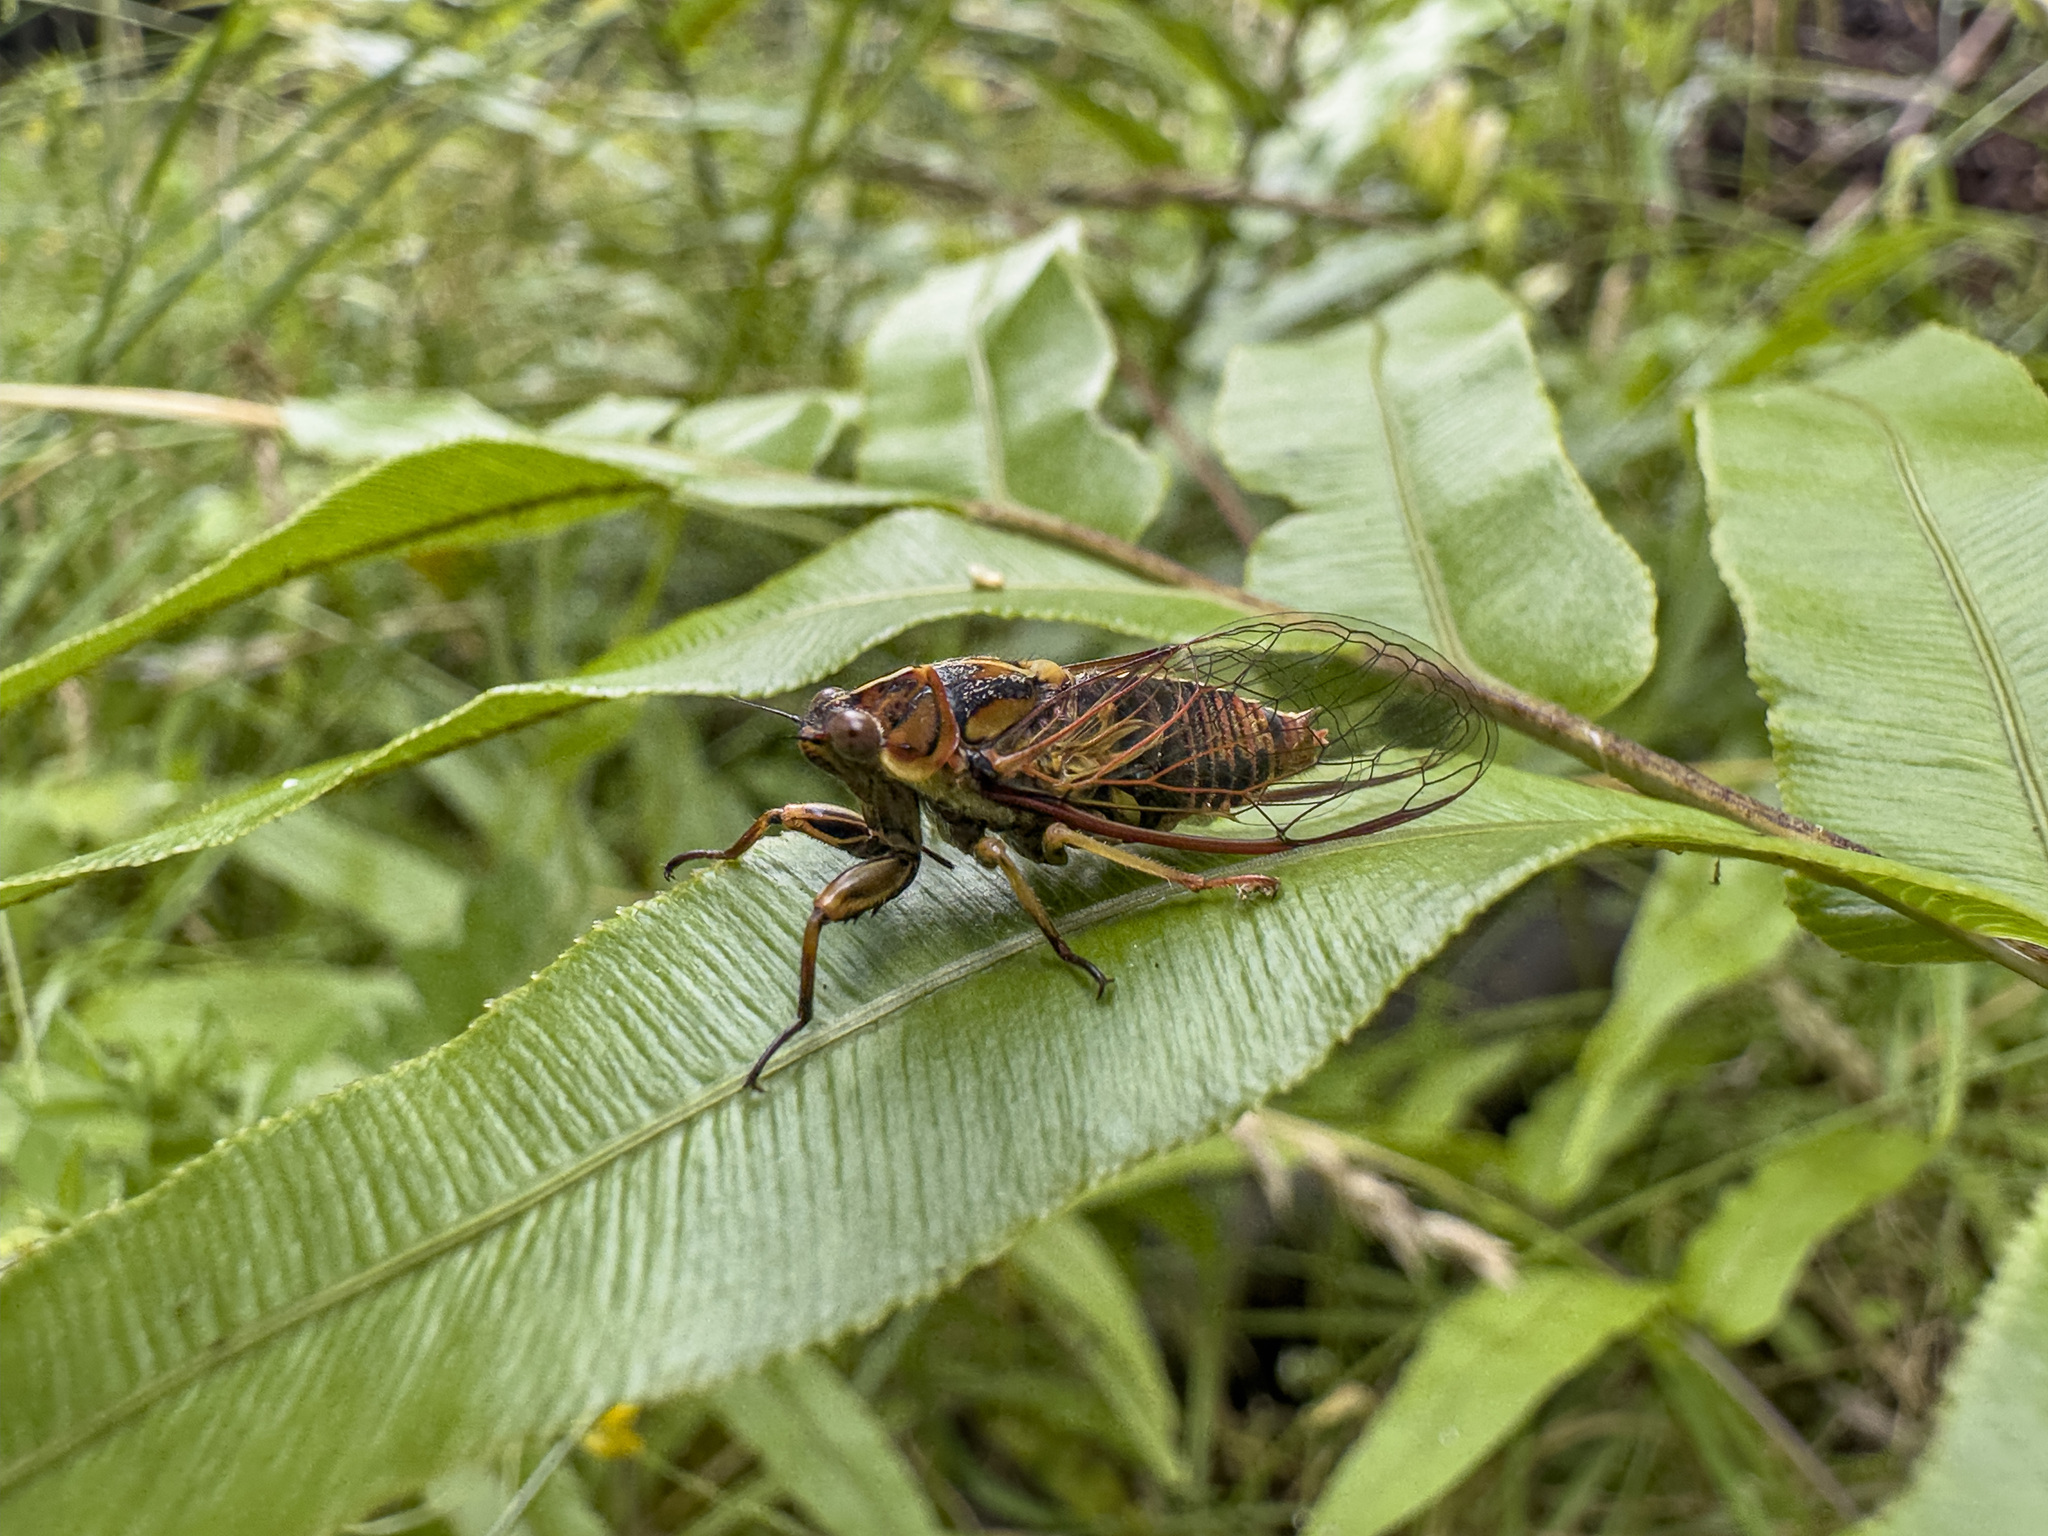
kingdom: Animalia
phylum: Arthropoda
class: Insecta
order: Hemiptera
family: Cicadidae
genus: Kikihia
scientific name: Kikihia muta
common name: Variable cicada
